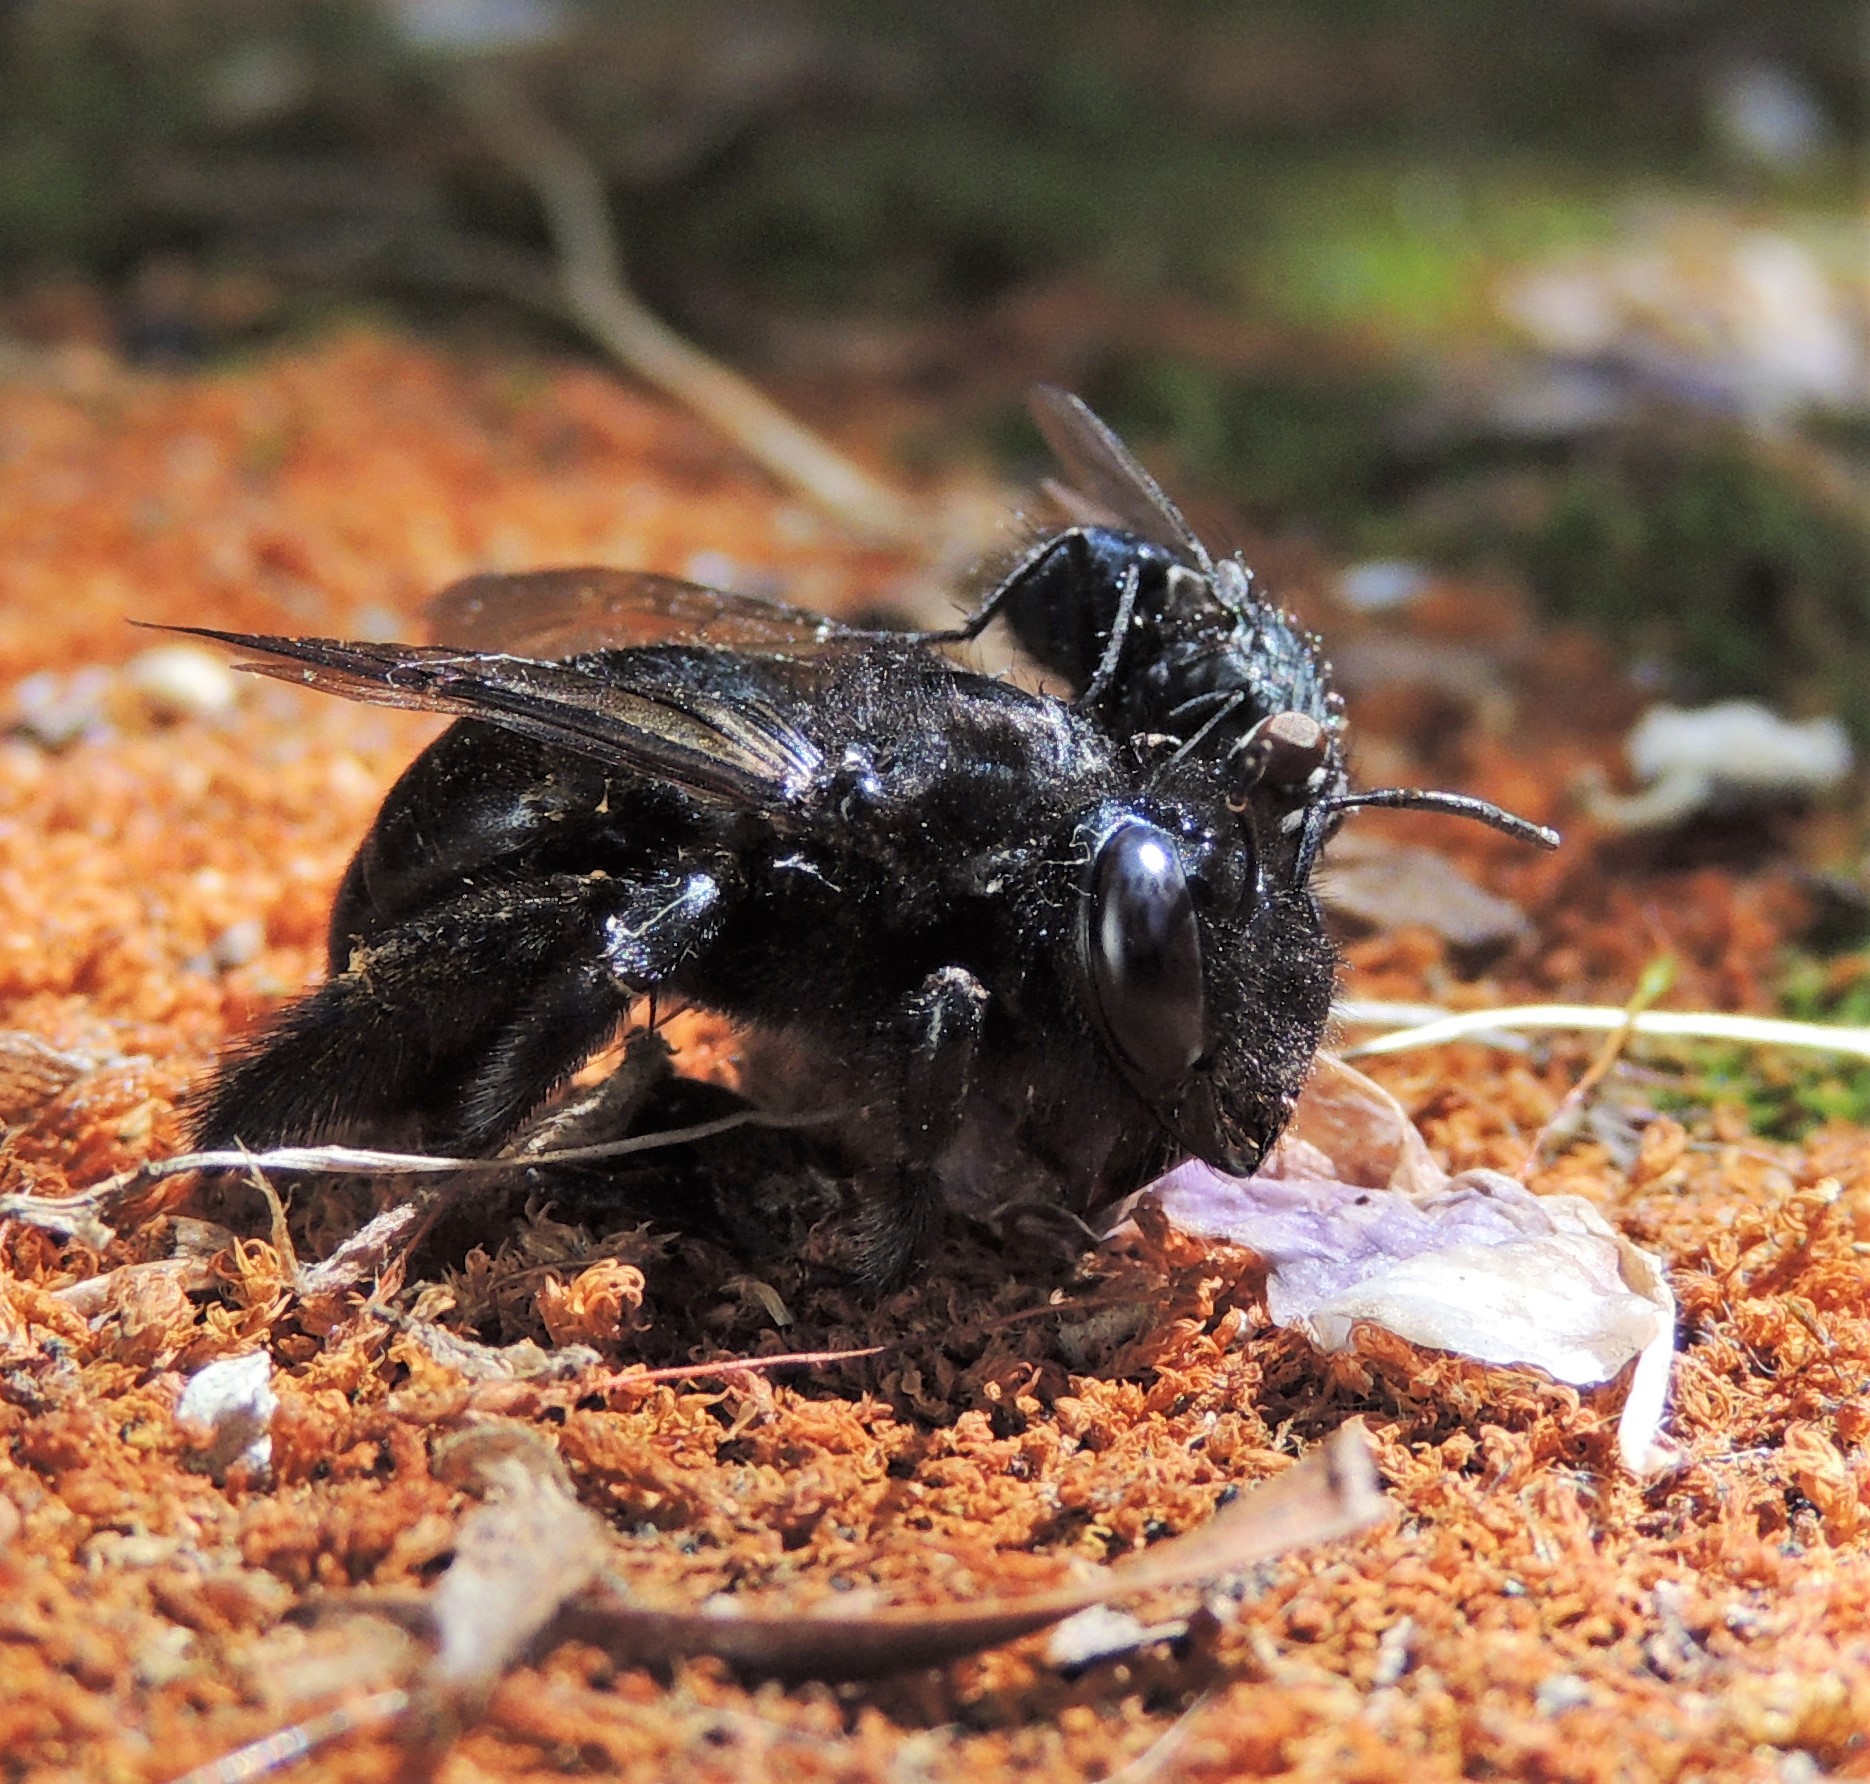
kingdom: Animalia
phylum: Arthropoda
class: Insecta
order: Hymenoptera
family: Apidae
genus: Xylocopa
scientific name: Xylocopa tabaniformis
